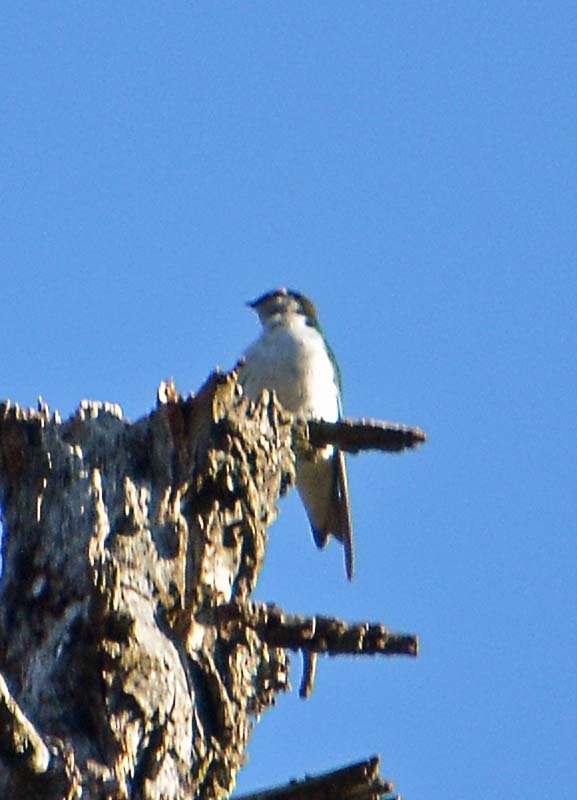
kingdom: Animalia
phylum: Chordata
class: Aves
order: Passeriformes
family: Hirundinidae
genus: Tachycineta
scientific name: Tachycineta thalassina
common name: Violet-green swallow
